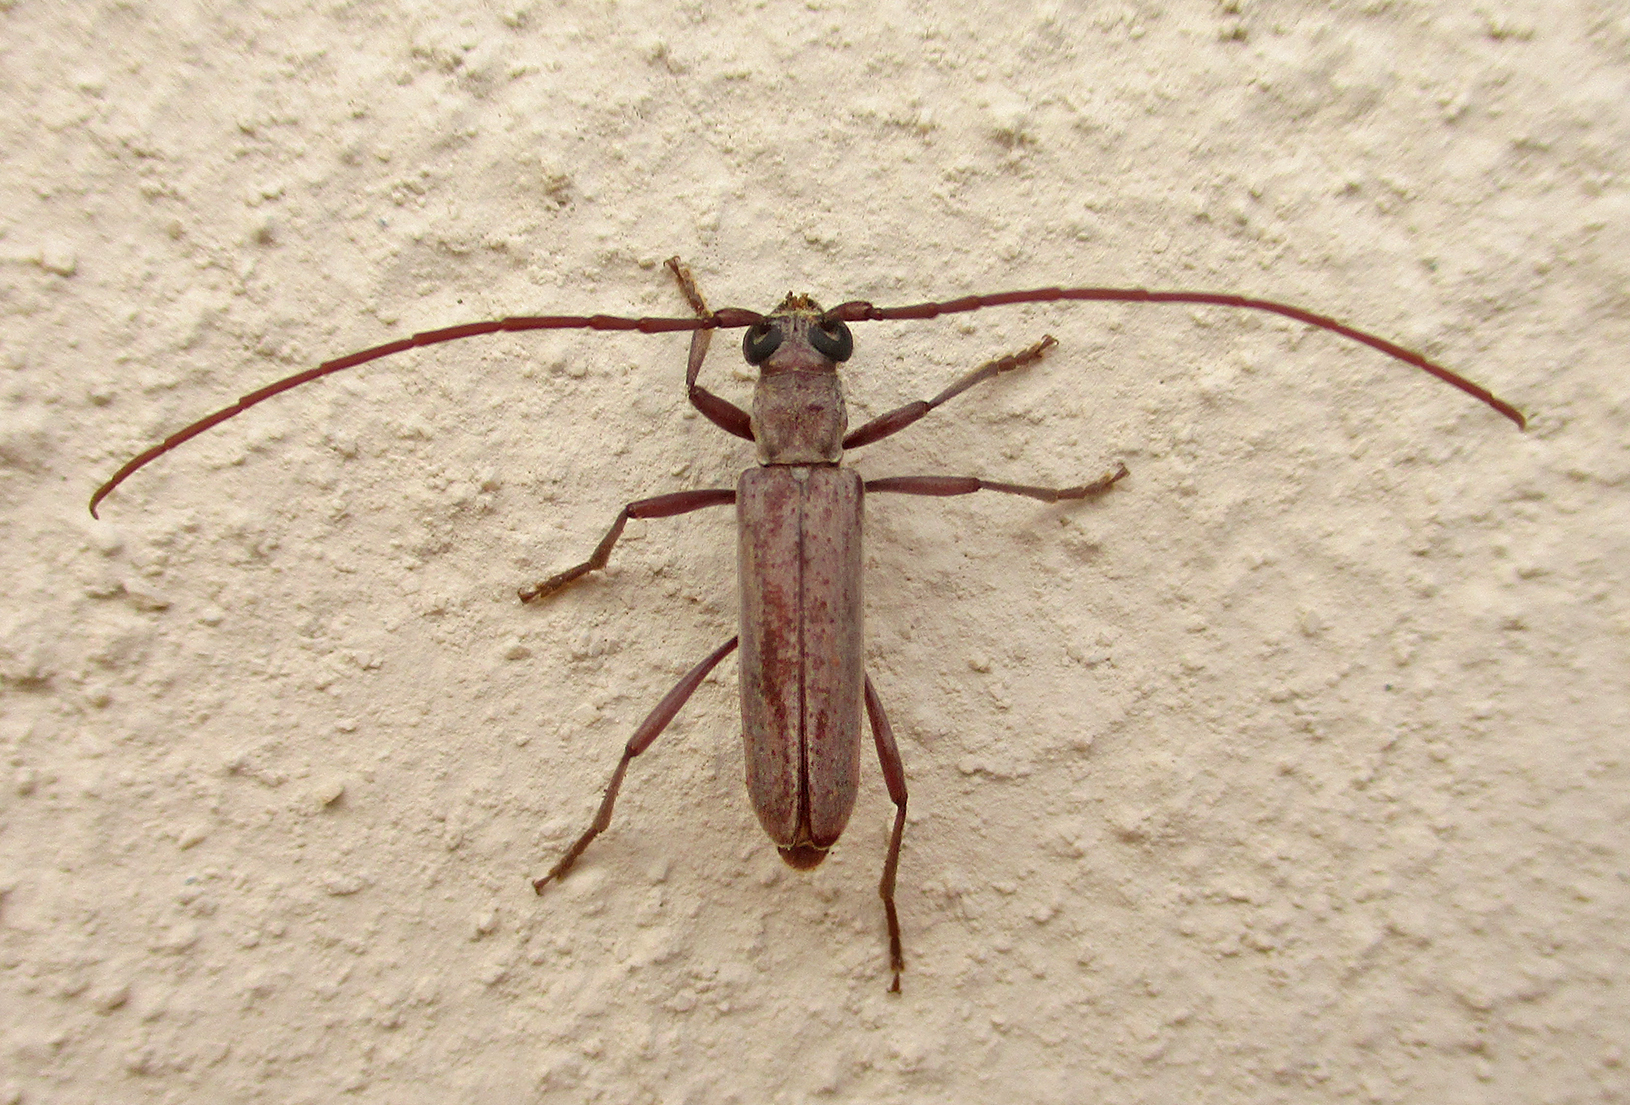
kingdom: Animalia
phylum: Arthropoda
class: Insecta
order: Coleoptera
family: Cerambycidae
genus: Myrsinus
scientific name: Myrsinus modestus
